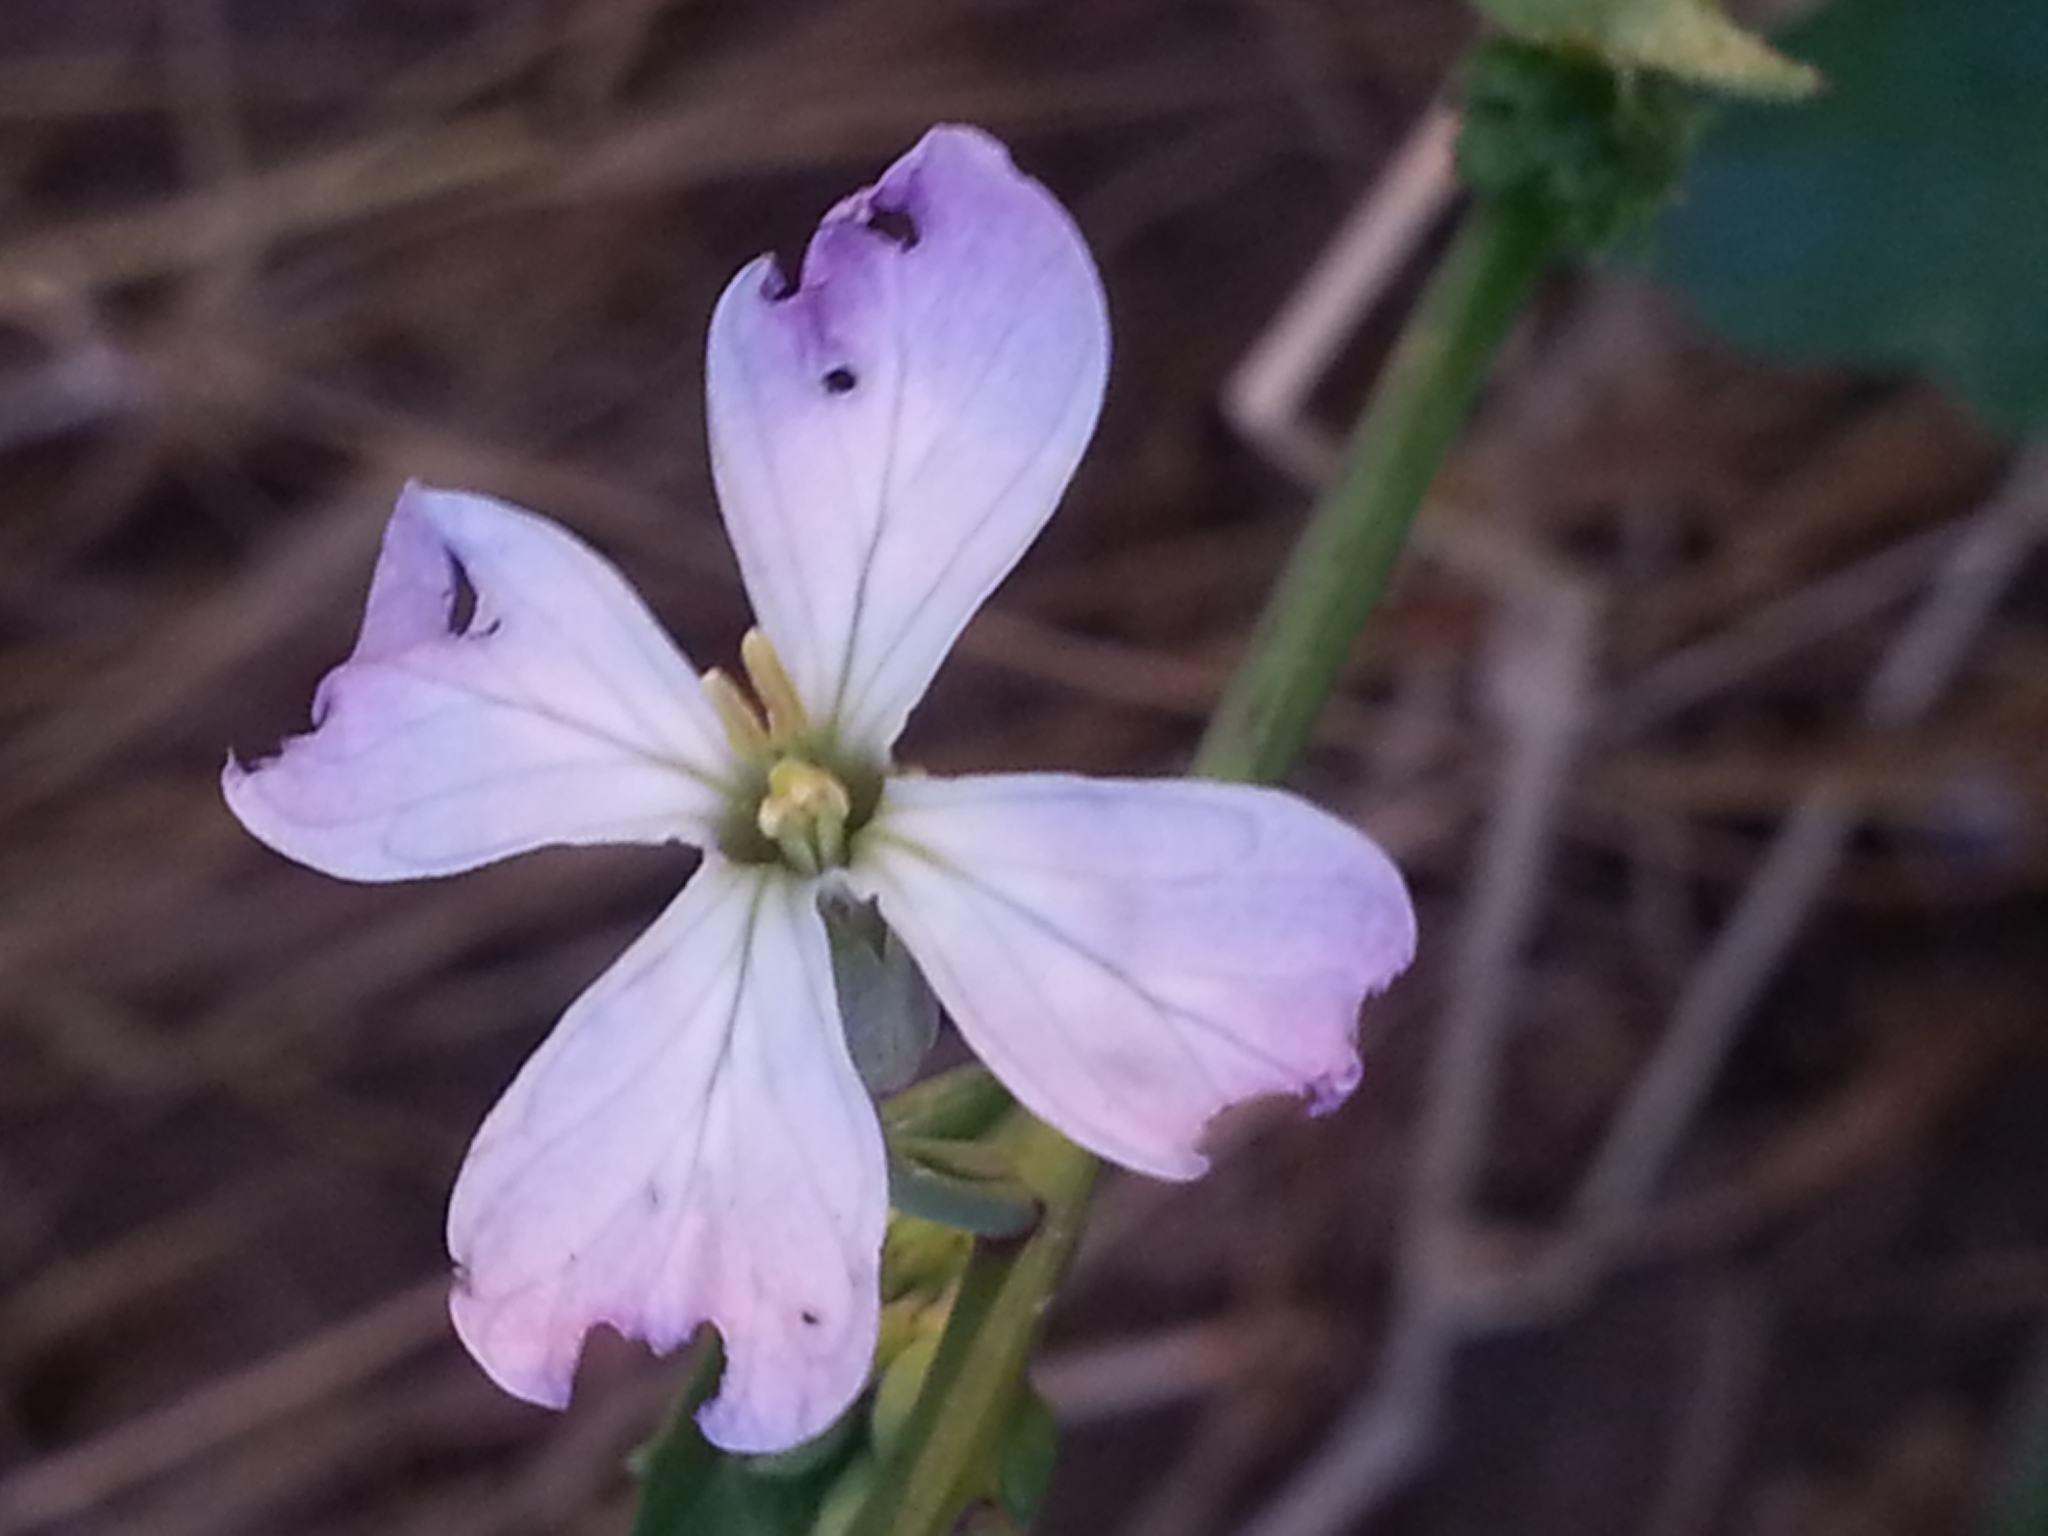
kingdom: Plantae
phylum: Tracheophyta
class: Magnoliopsida
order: Brassicales
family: Brassicaceae
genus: Raphanus
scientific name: Raphanus sativus
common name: Cultivated radish
